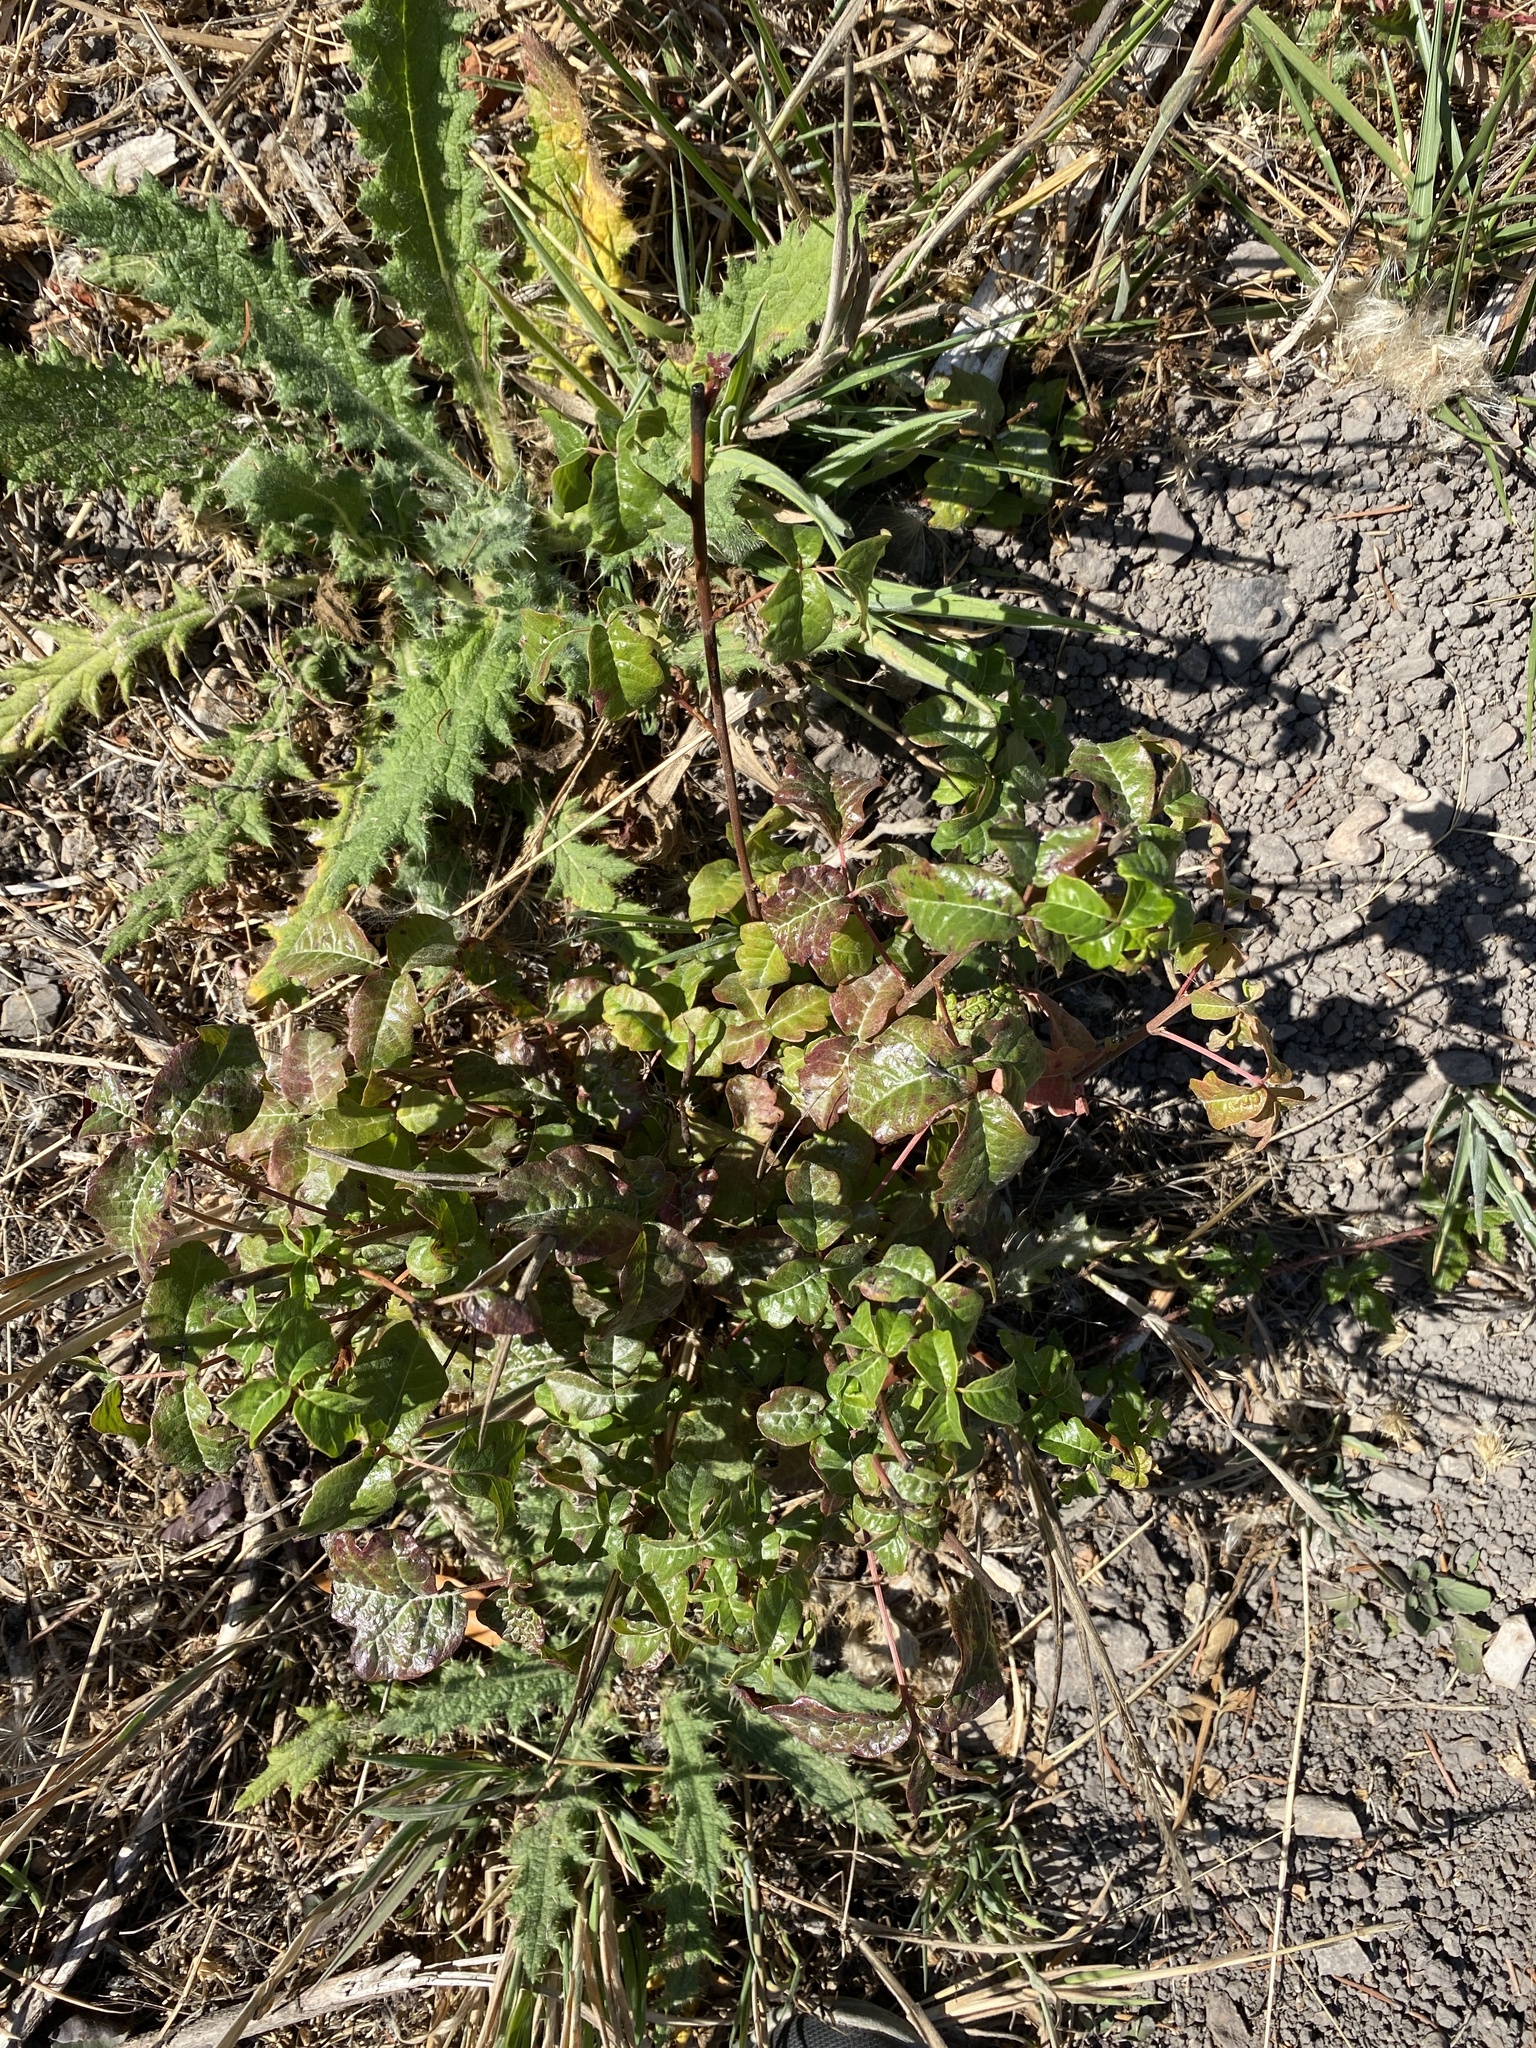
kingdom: Plantae
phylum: Tracheophyta
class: Magnoliopsida
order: Sapindales
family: Anacardiaceae
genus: Toxicodendron
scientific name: Toxicodendron diversilobum
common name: Pacific poison-oak
